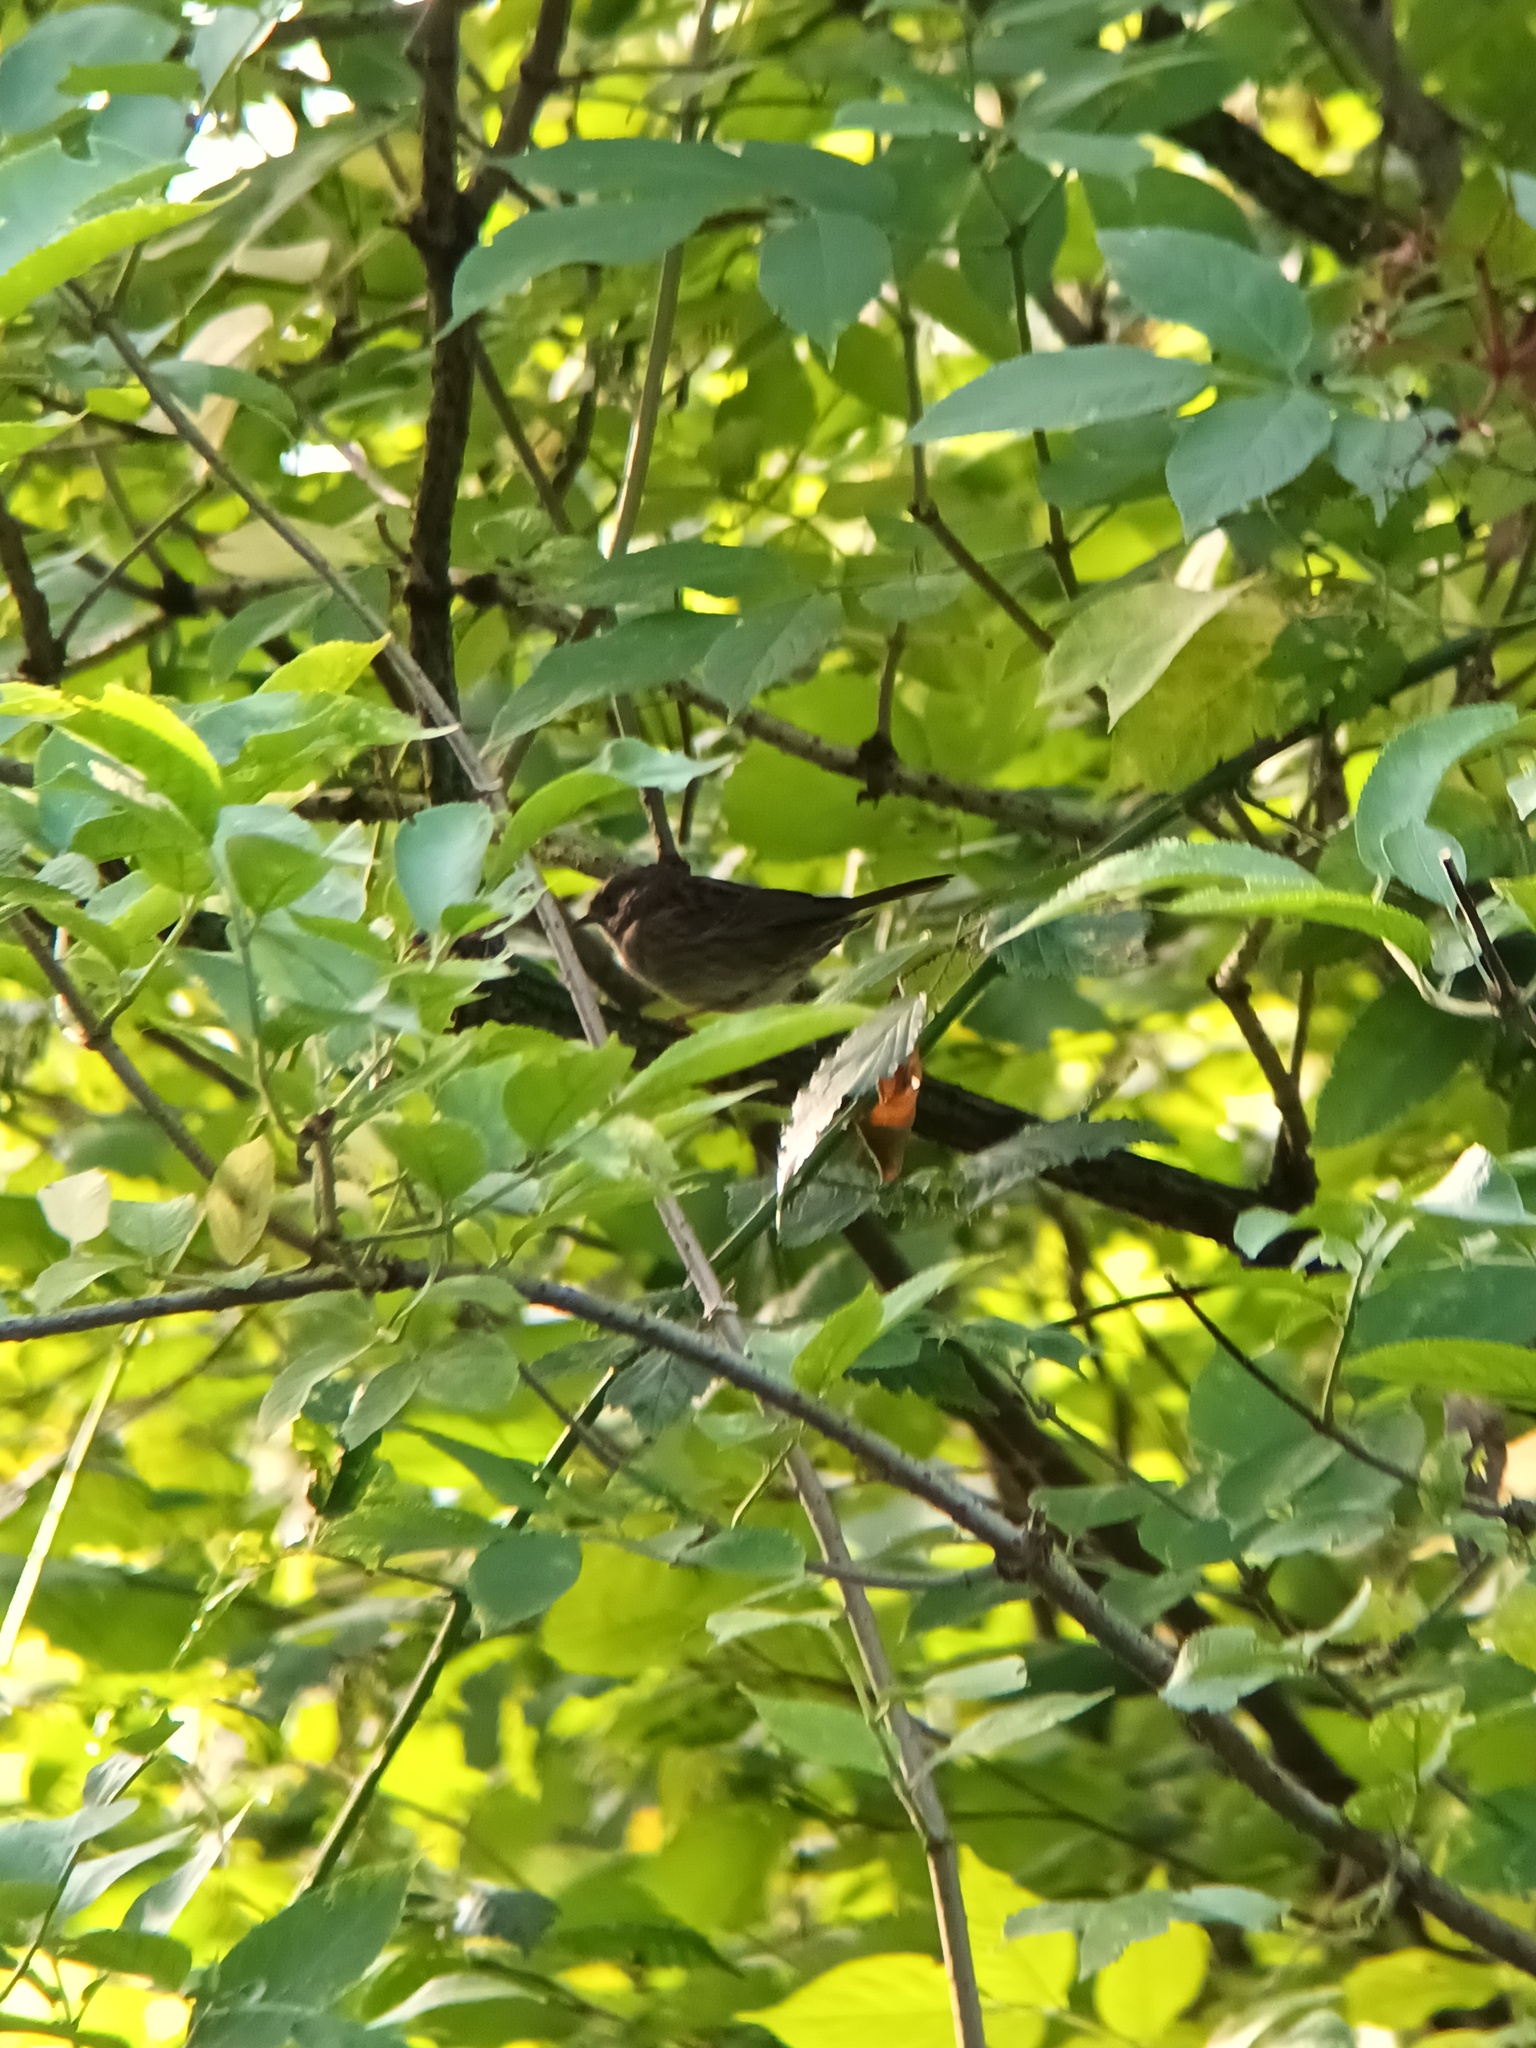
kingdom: Animalia
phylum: Chordata
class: Aves
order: Passeriformes
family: Prunellidae
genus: Prunella
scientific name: Prunella modularis
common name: Dunnock
